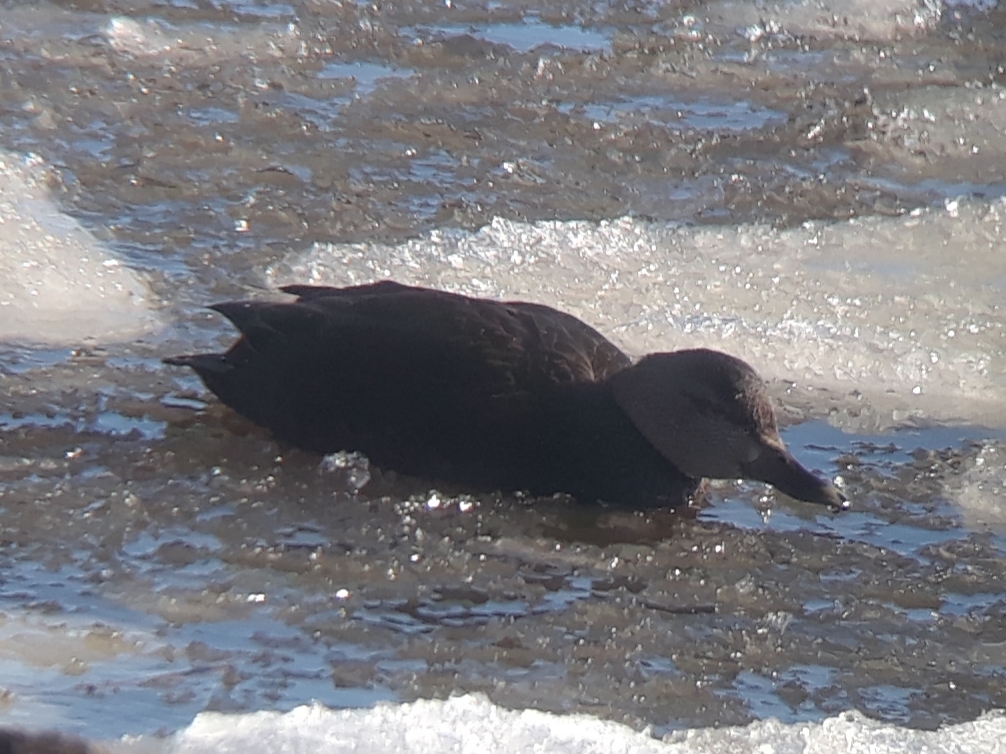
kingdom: Animalia
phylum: Chordata
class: Aves
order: Anseriformes
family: Anatidae
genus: Anas
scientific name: Anas rubripes
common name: American black duck
